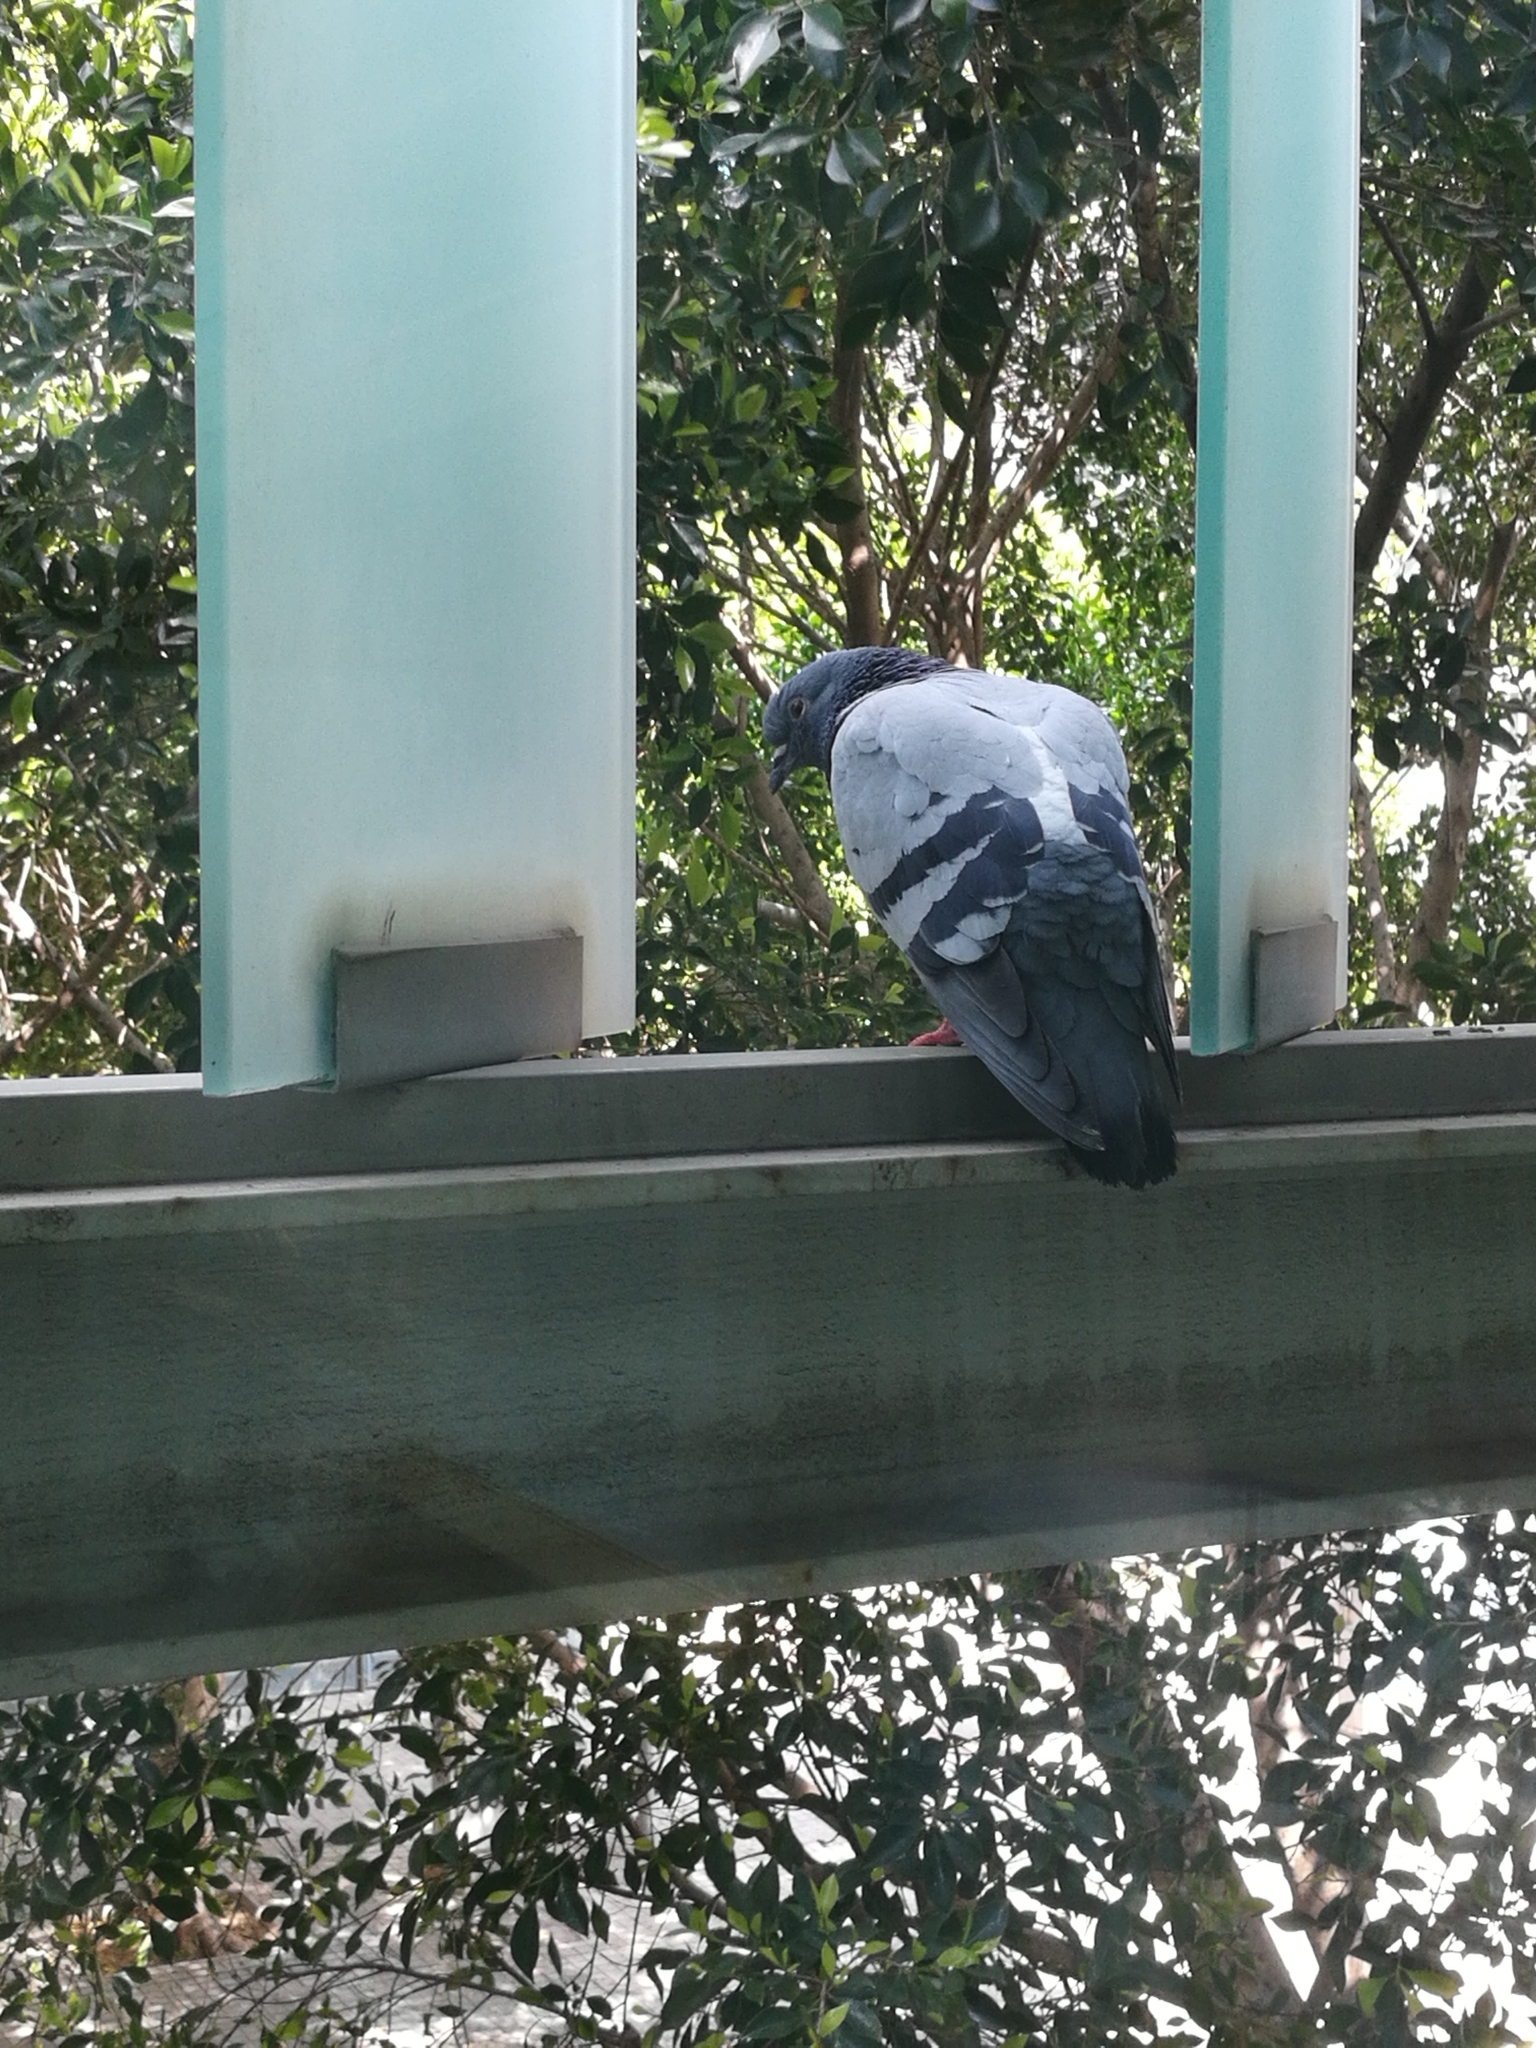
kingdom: Animalia
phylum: Chordata
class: Aves
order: Columbiformes
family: Columbidae
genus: Columba
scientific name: Columba livia
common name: Rock pigeon
